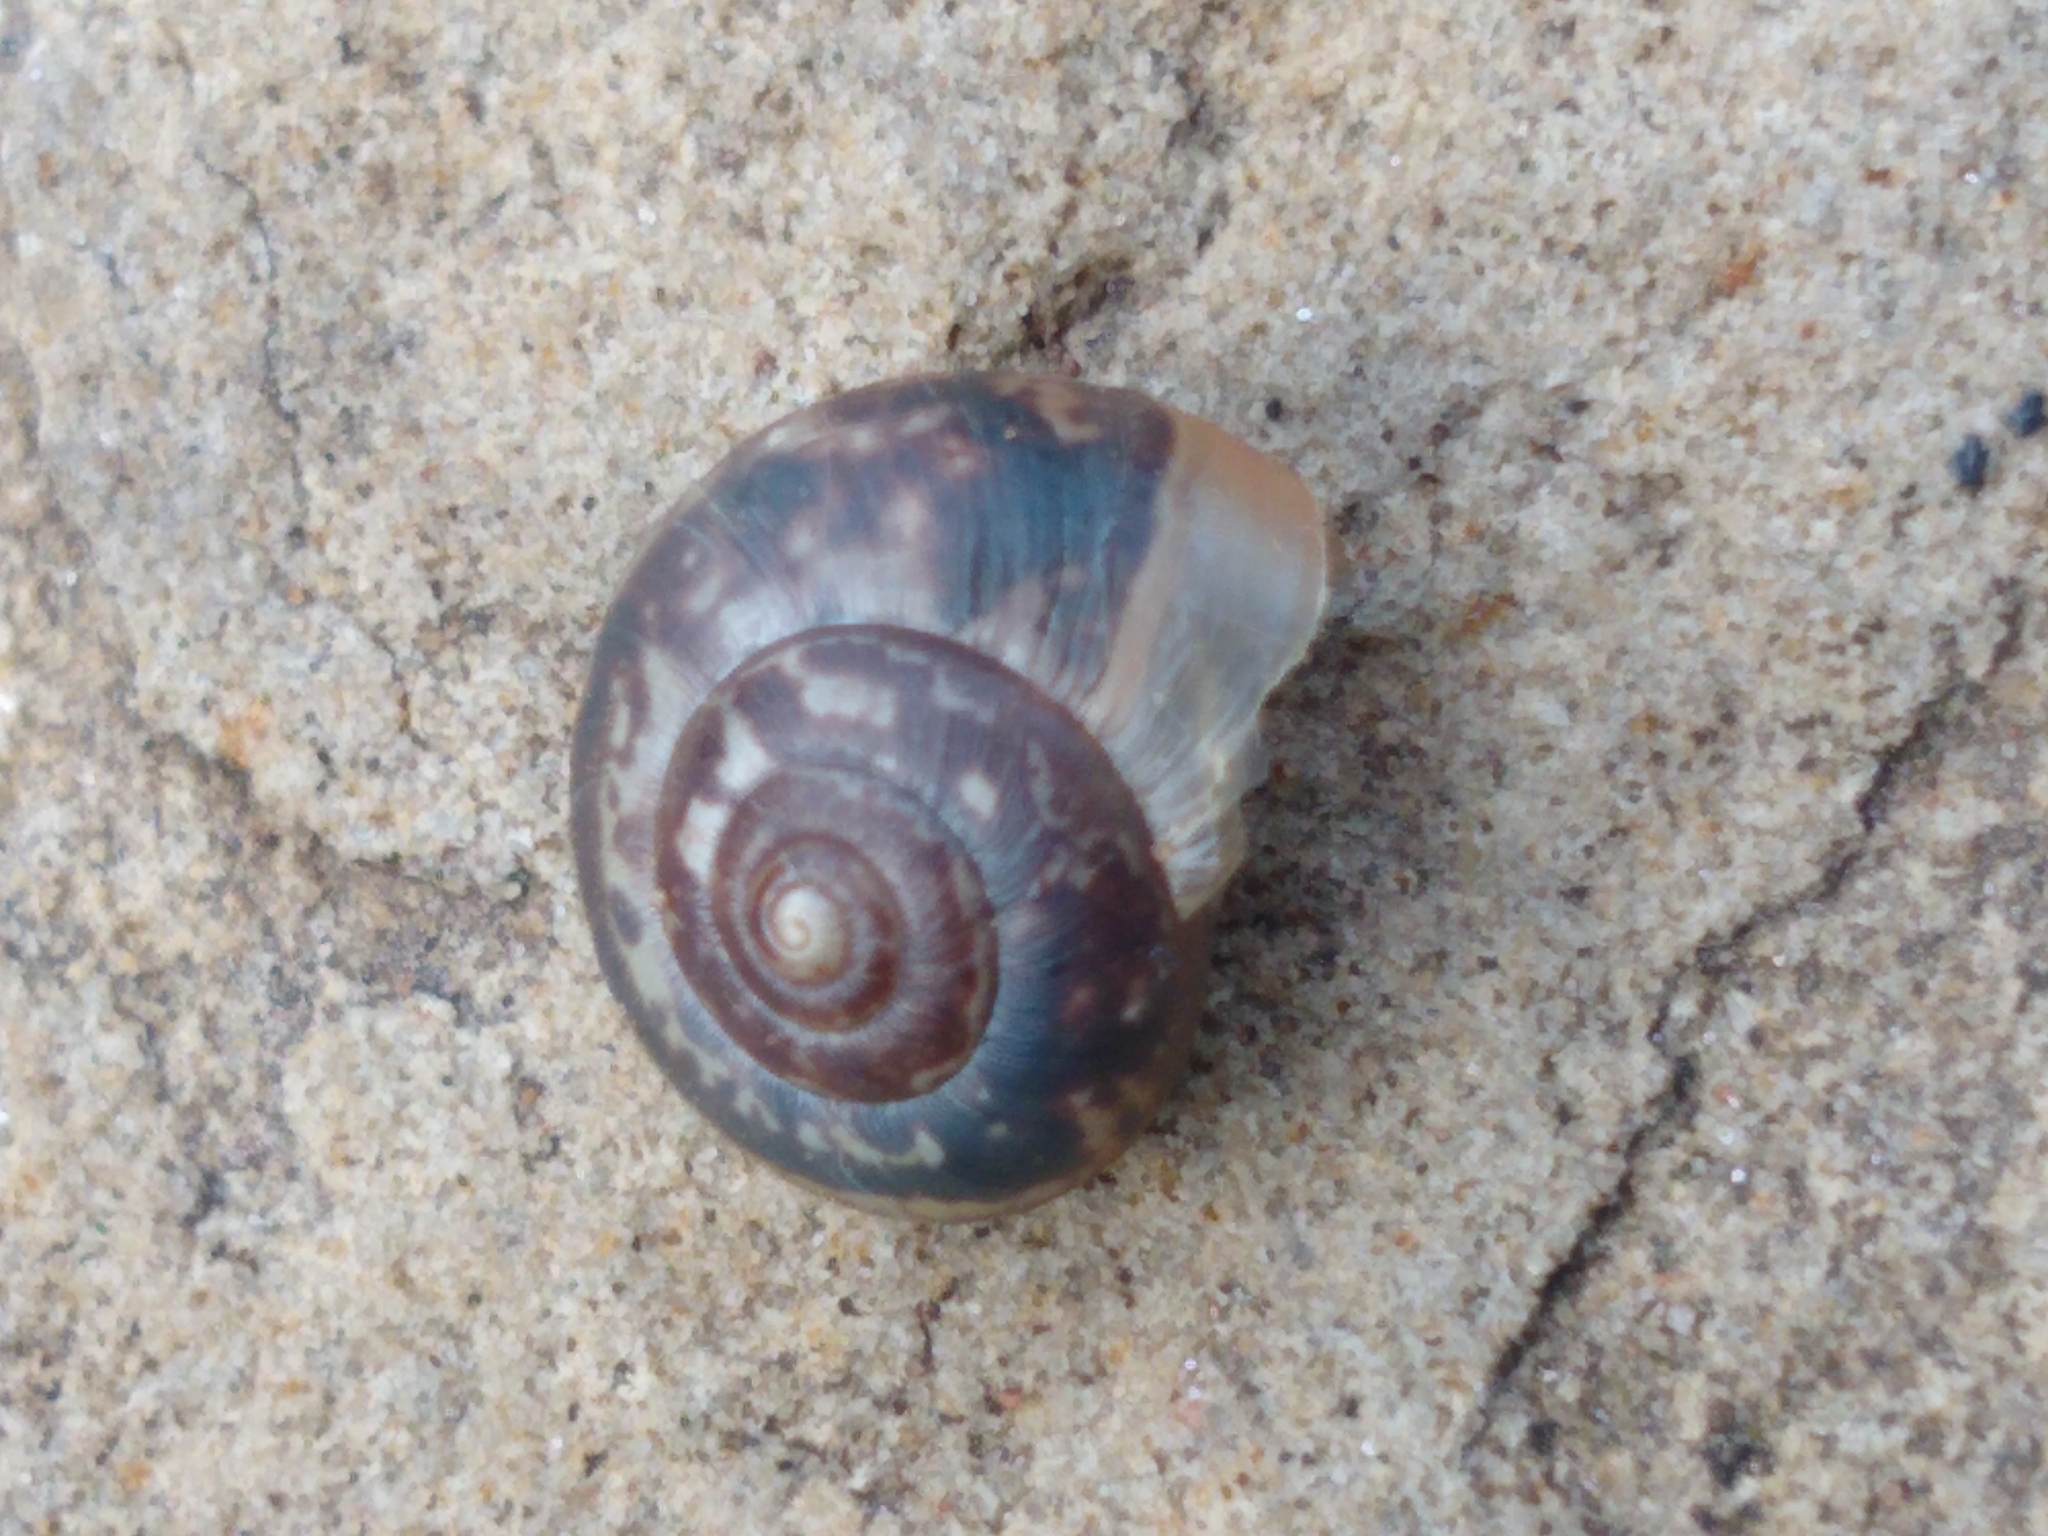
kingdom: Animalia
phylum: Mollusca
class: Gastropoda
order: Stylommatophora
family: Hygromiidae
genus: Monacha
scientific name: Monacha cantiana
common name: Kentish snail
